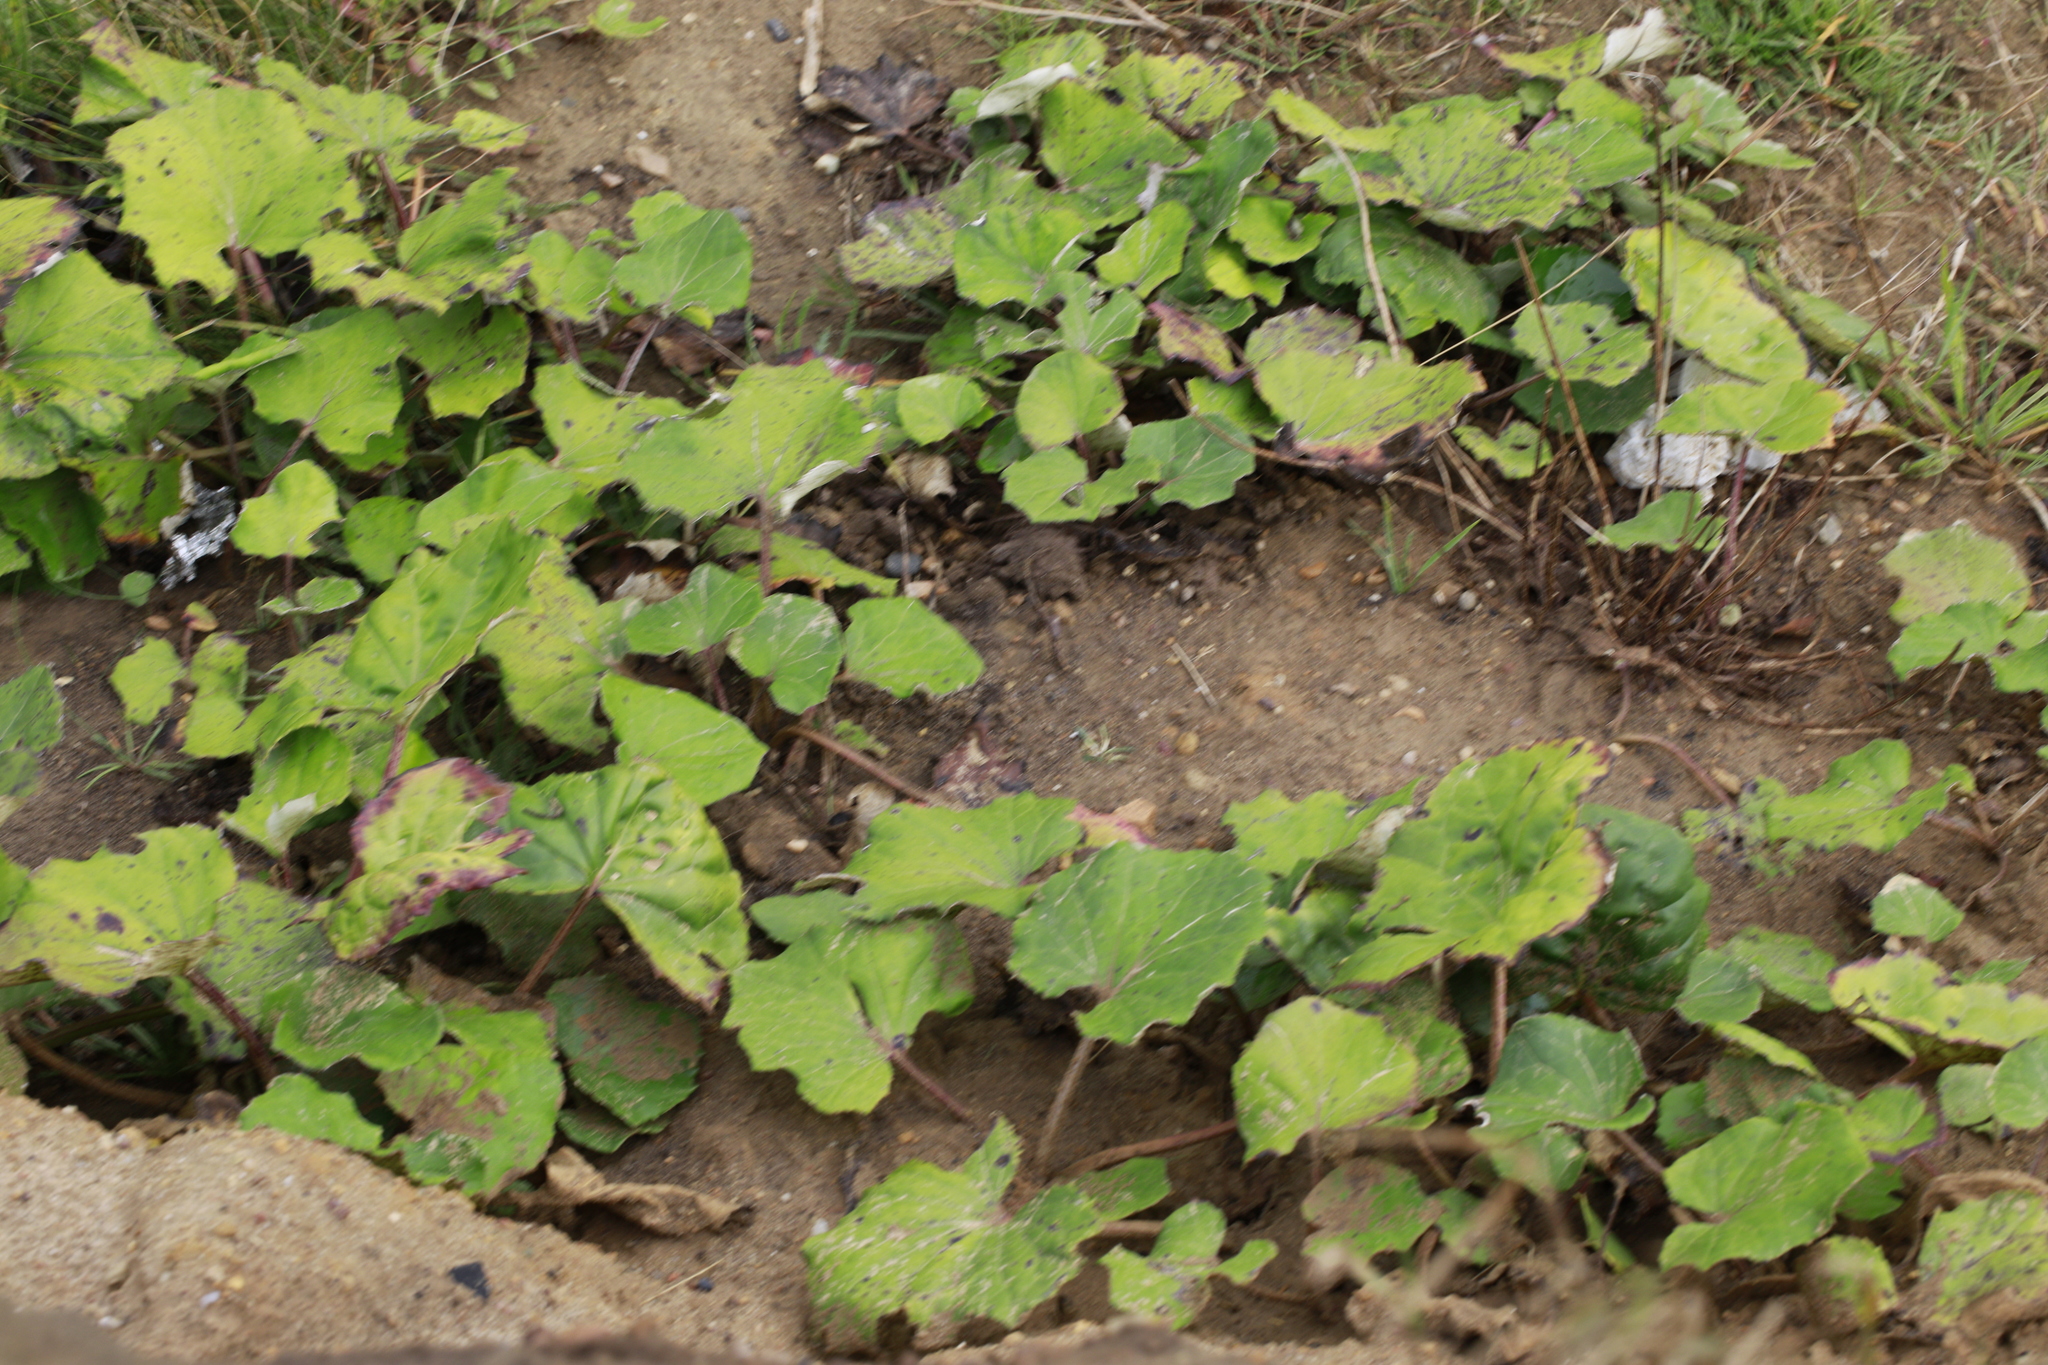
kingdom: Plantae
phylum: Tracheophyta
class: Magnoliopsida
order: Asterales
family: Asteraceae
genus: Tussilago
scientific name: Tussilago farfara
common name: Coltsfoot
